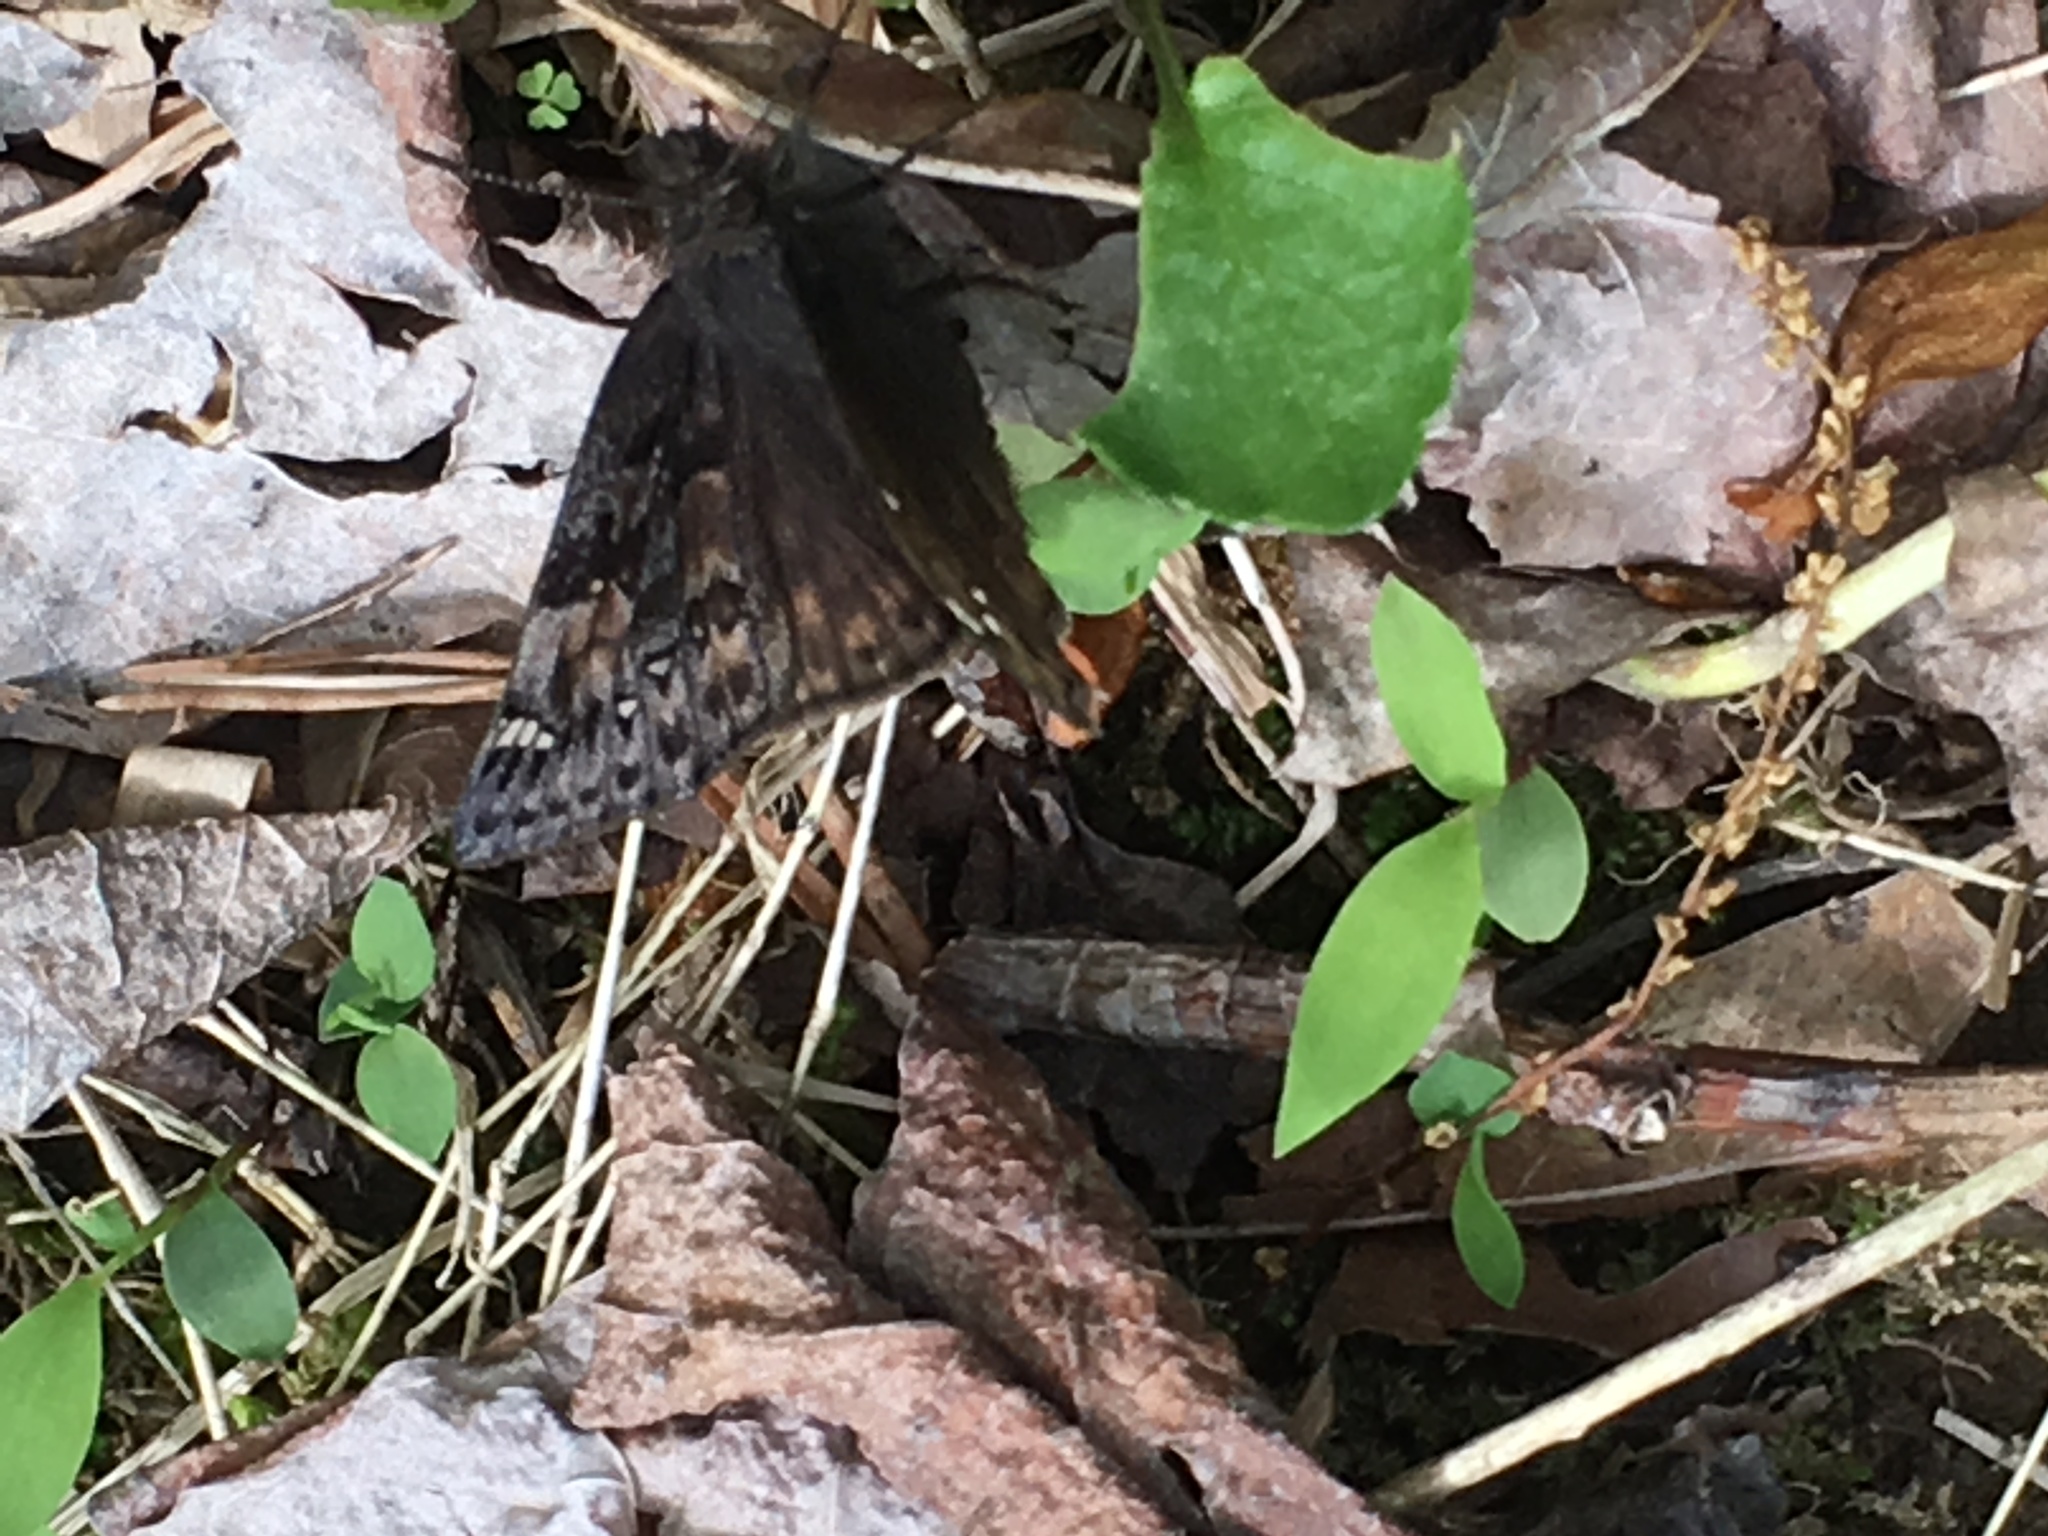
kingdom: Animalia
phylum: Arthropoda
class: Insecta
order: Lepidoptera
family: Hesperiidae
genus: Erynnis
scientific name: Erynnis juvenalis
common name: Juvenal's duskywing
